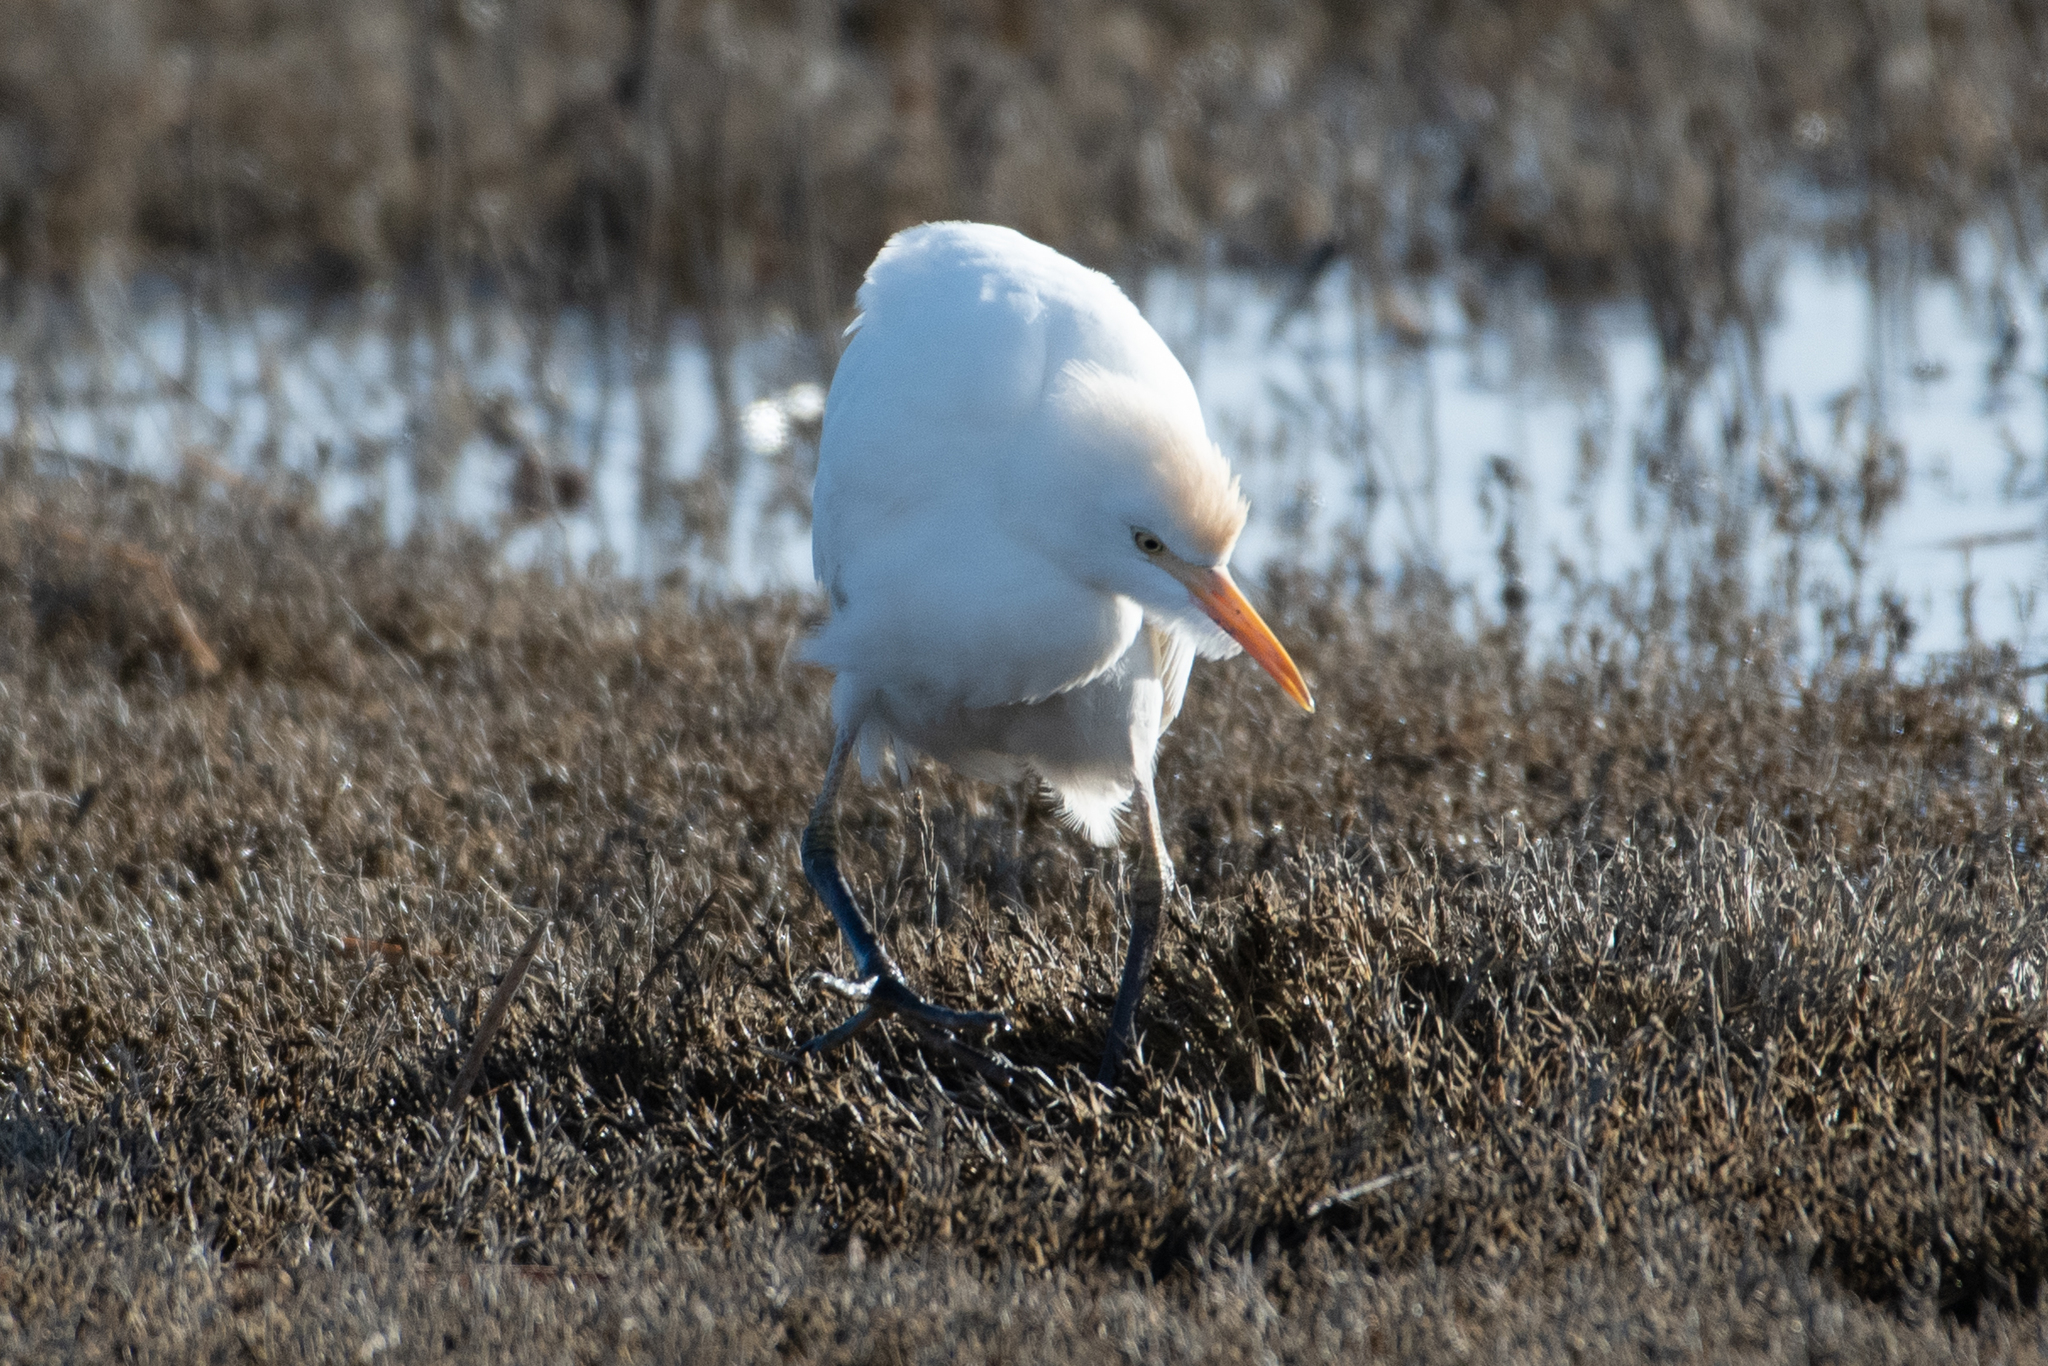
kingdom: Animalia
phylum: Chordata
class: Aves
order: Pelecaniformes
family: Ardeidae
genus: Bubulcus
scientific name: Bubulcus ibis
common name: Cattle egret
